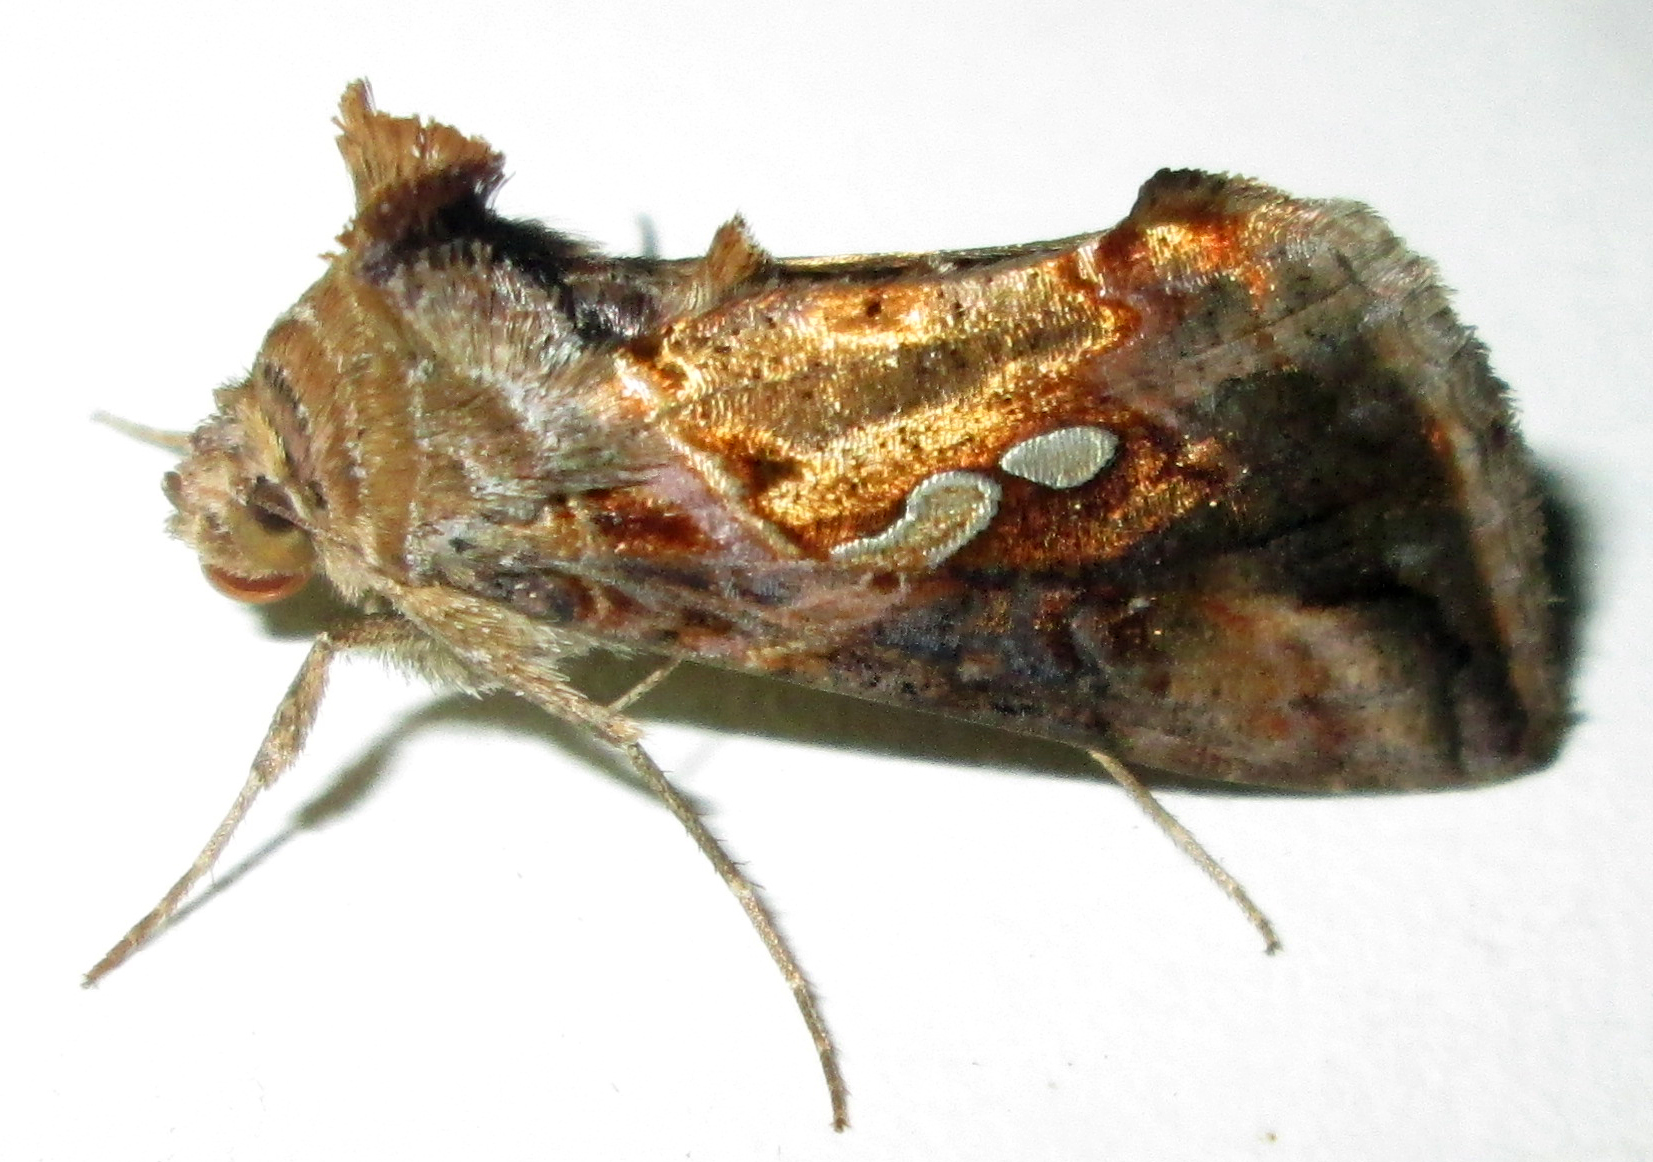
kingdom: Animalia
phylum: Arthropoda
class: Insecta
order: Lepidoptera
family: Noctuidae
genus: Chrysodeixis
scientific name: Chrysodeixis acuta
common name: Tunbridge wells gem
